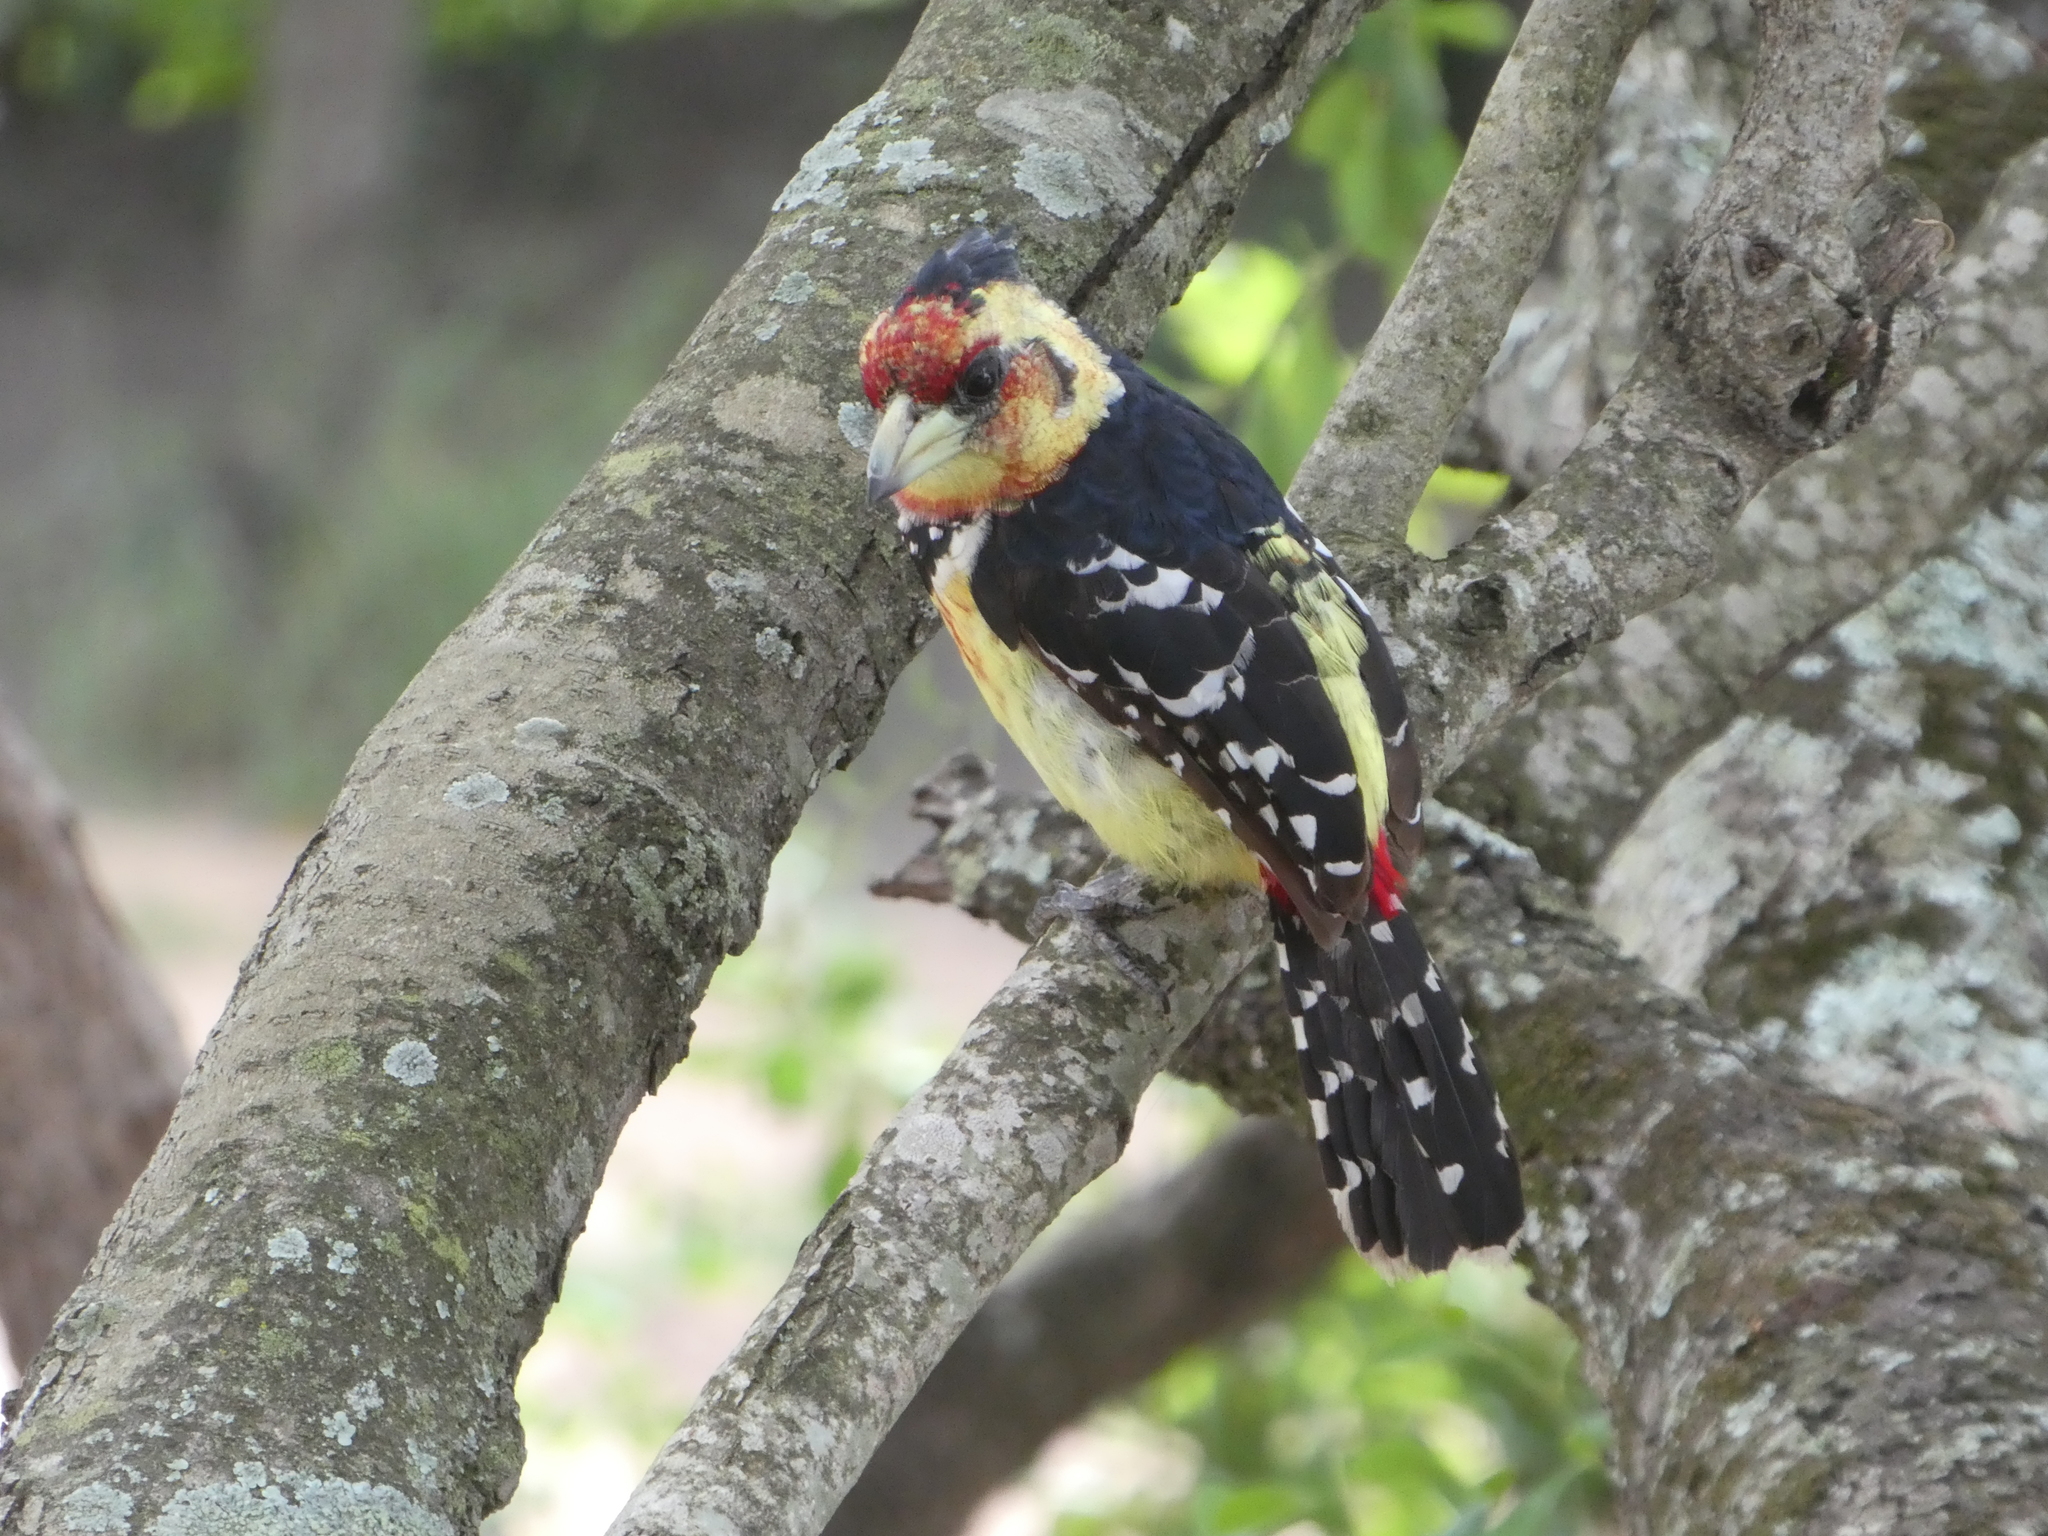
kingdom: Animalia
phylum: Chordata
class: Aves
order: Piciformes
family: Lybiidae
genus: Trachyphonus
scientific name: Trachyphonus vaillantii
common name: Crested barbet
